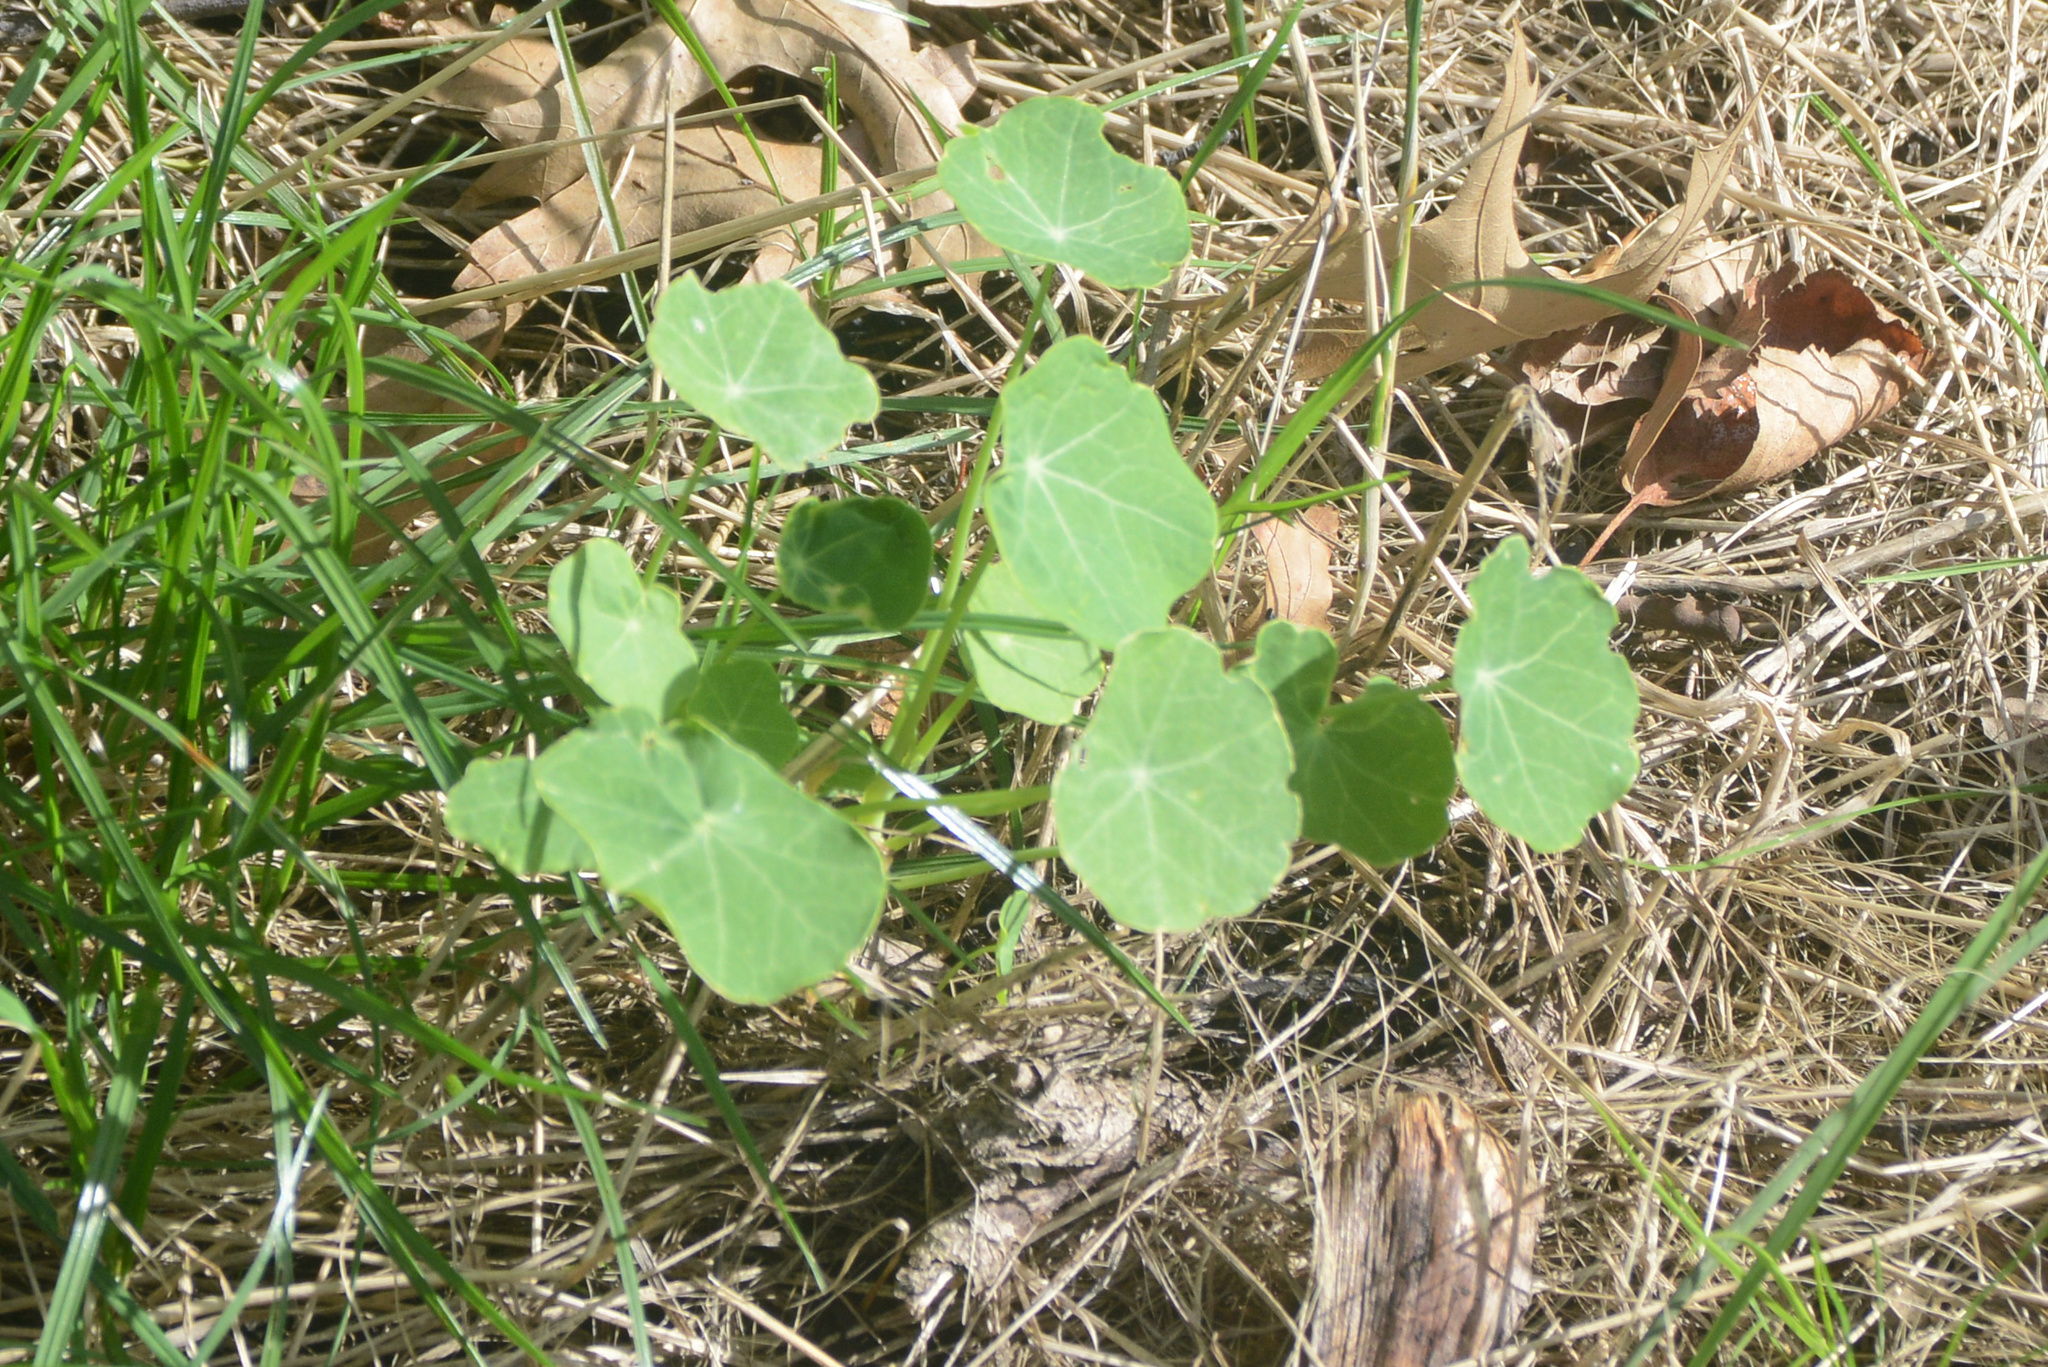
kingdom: Plantae
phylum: Tracheophyta
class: Magnoliopsida
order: Brassicales
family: Tropaeolaceae
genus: Tropaeolum
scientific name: Tropaeolum majus
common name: Nasturtium
